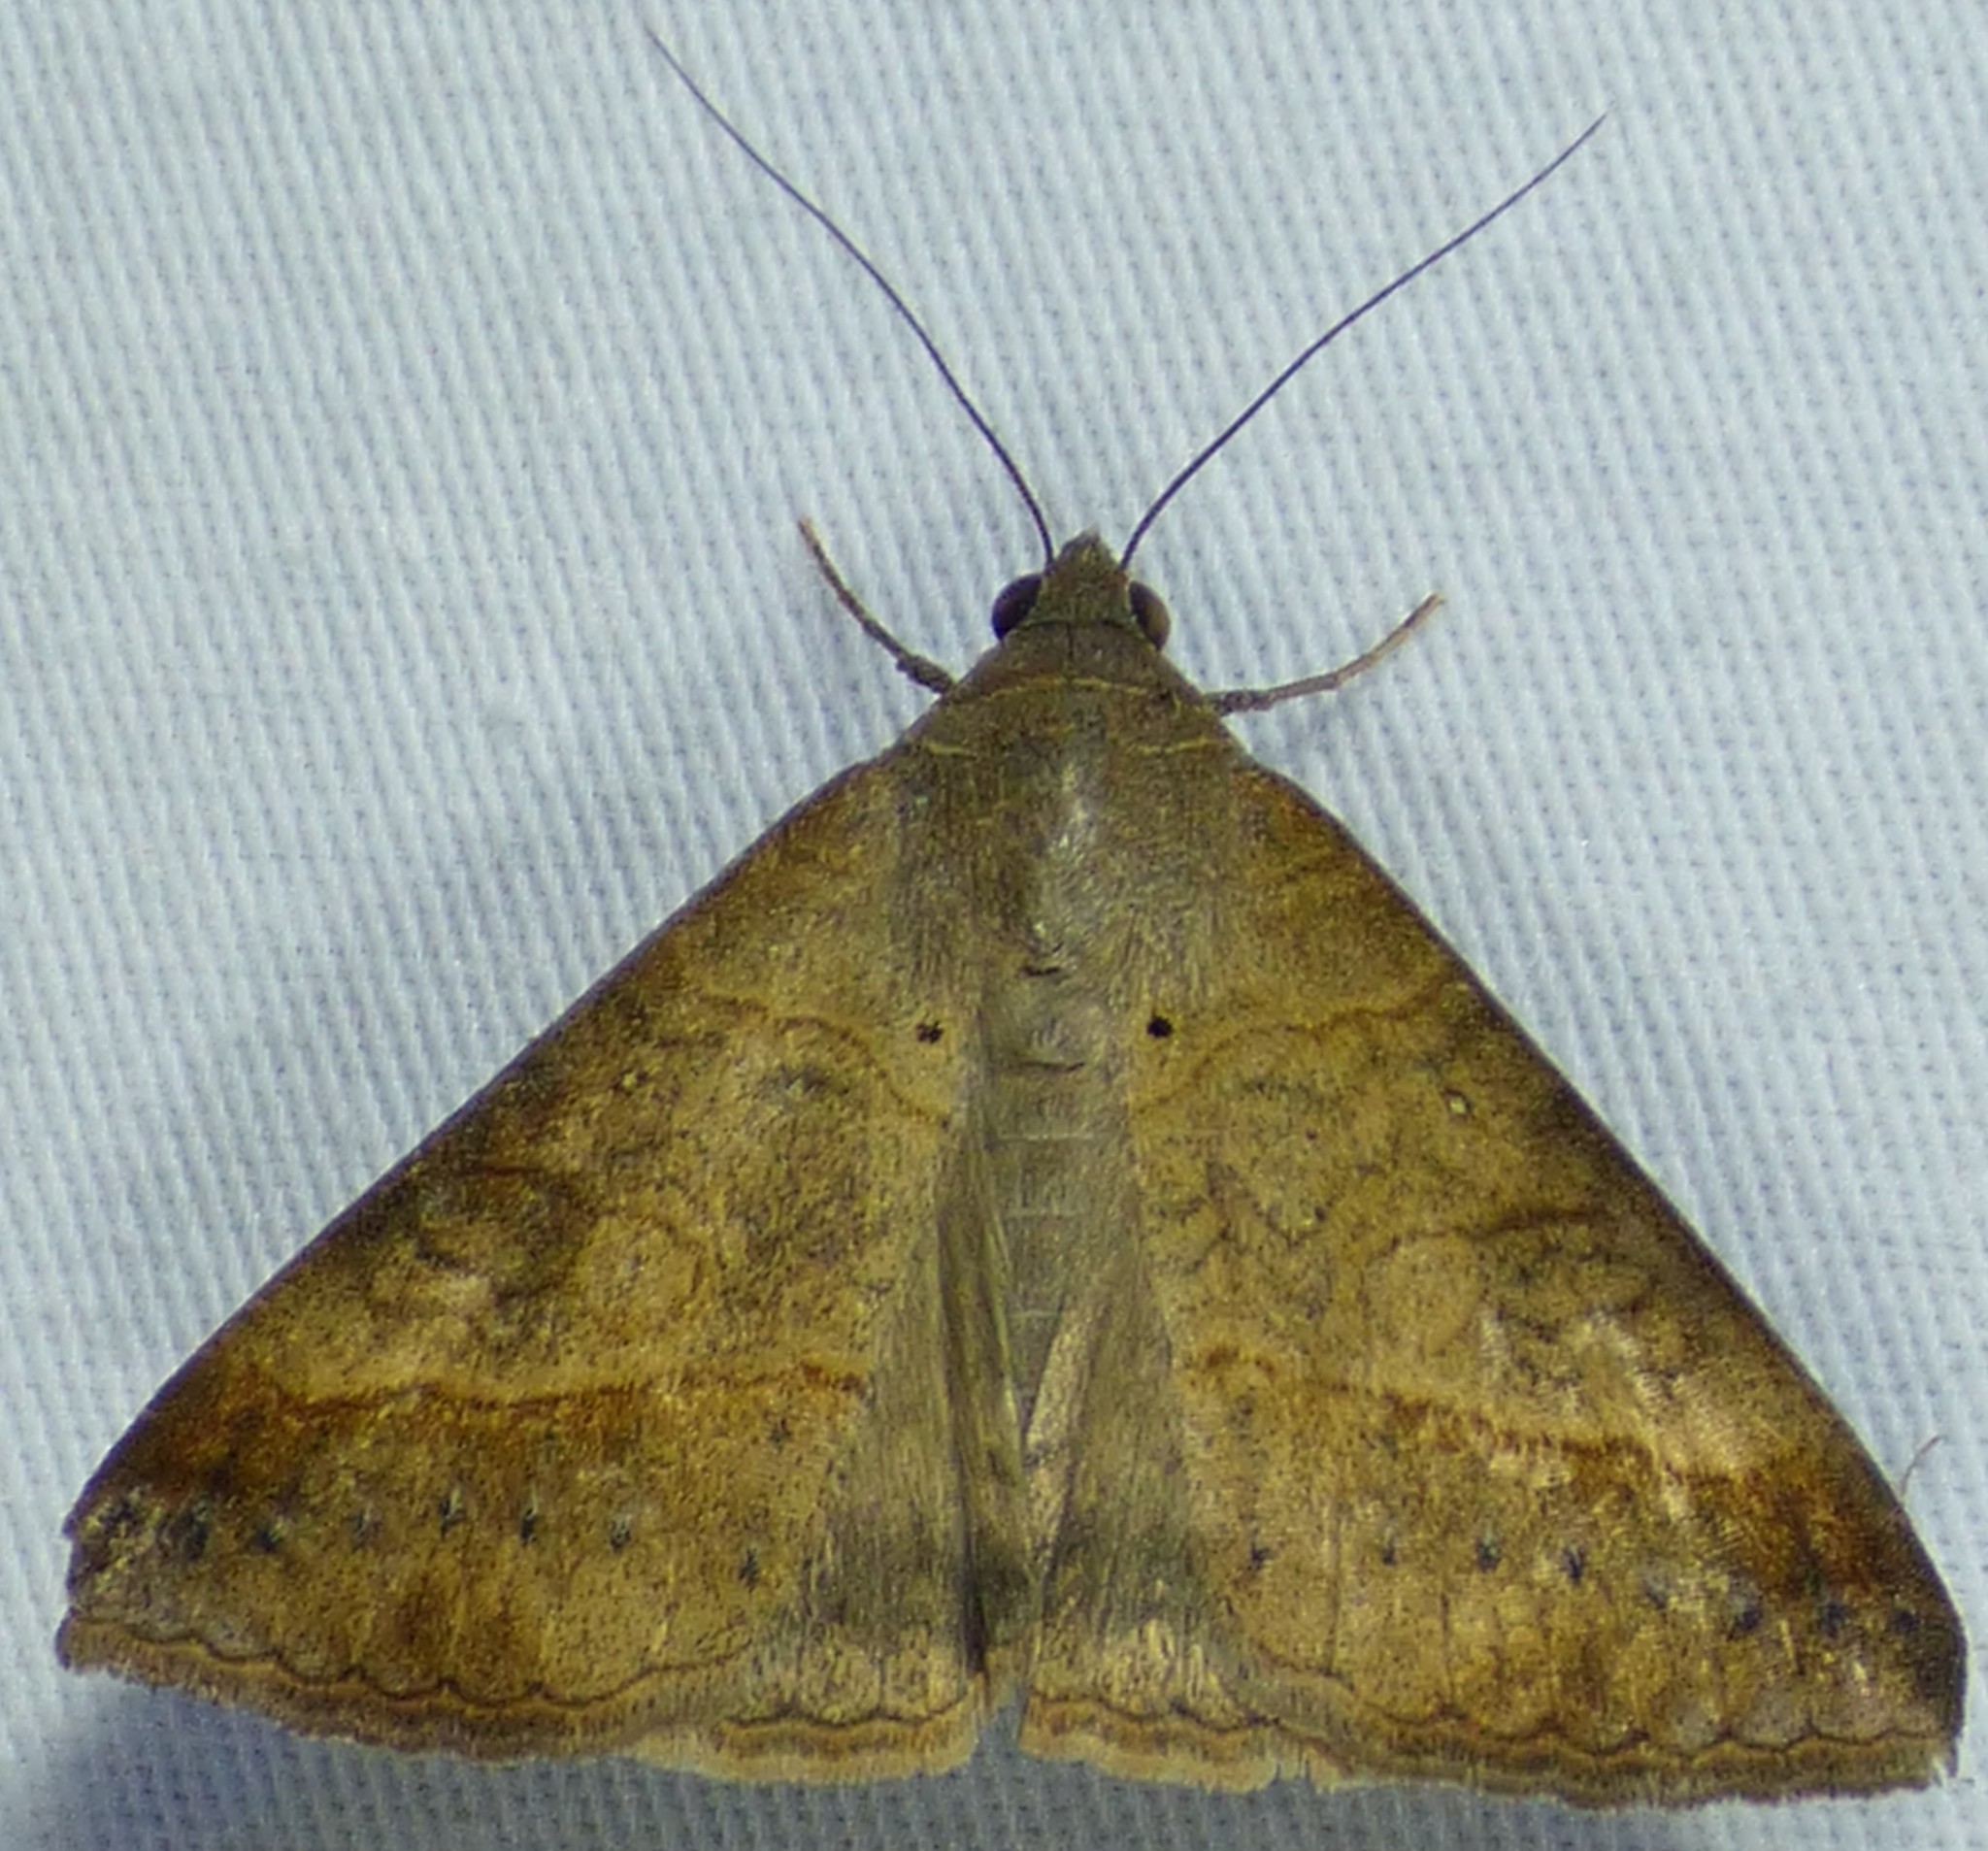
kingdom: Animalia
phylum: Arthropoda
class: Insecta
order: Lepidoptera
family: Erebidae
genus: Mocis
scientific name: Mocis latipes
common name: Striped grass looper
